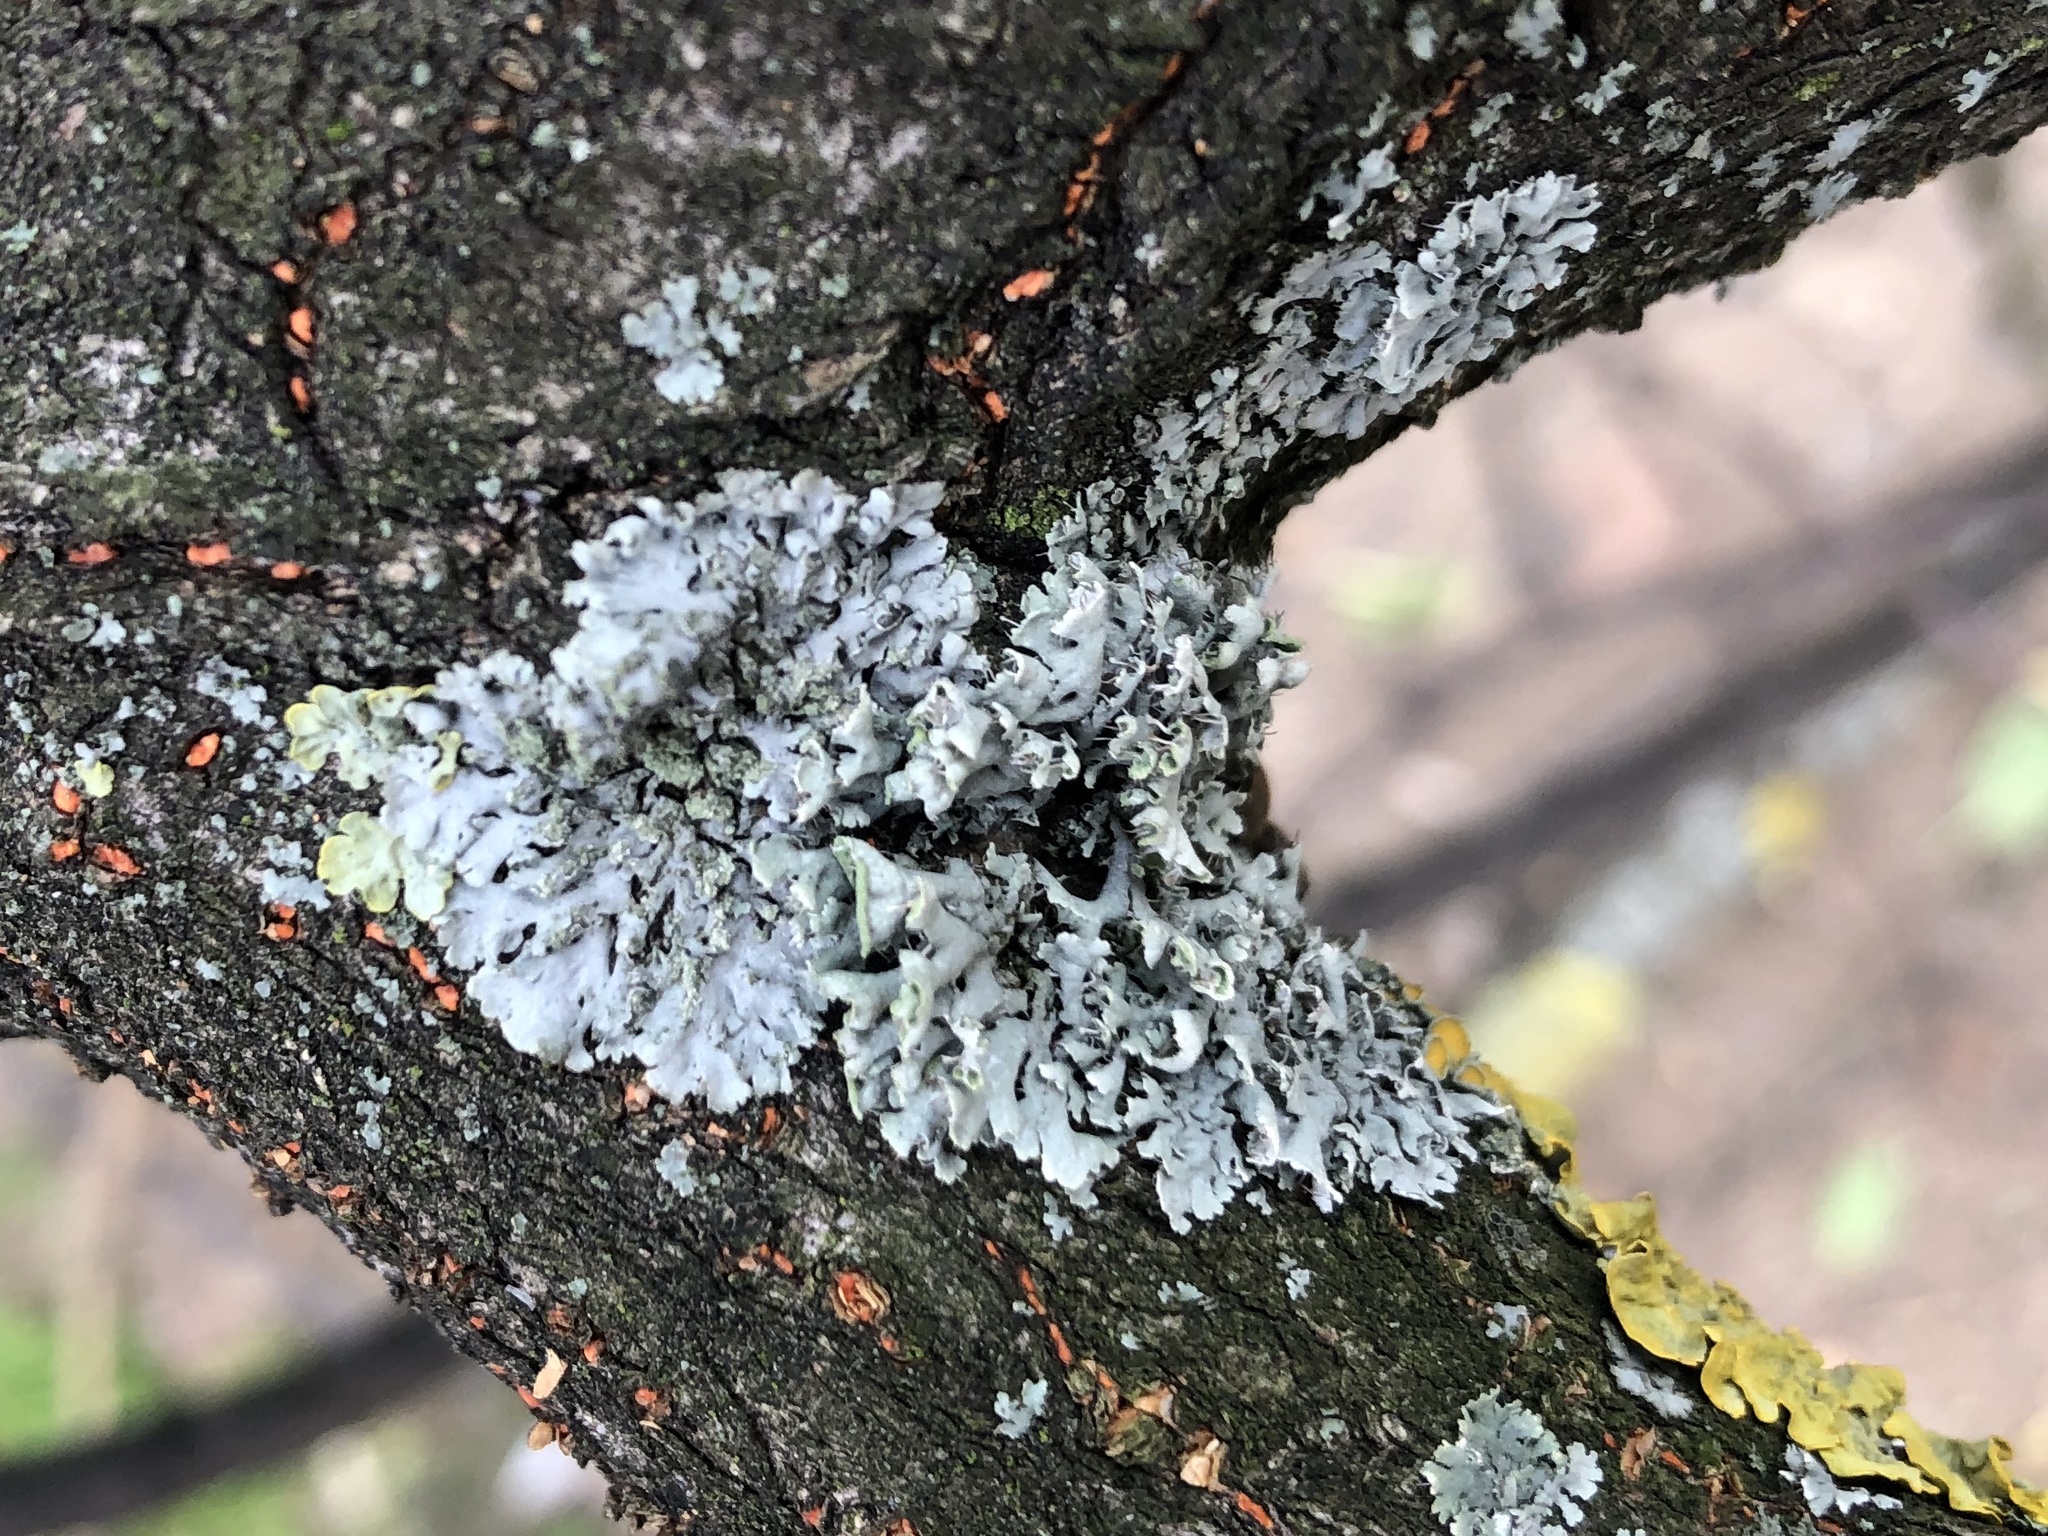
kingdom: Fungi
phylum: Ascomycota
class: Lecanoromycetes
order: Caliciales
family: Physciaceae
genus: Physcia
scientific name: Physcia adscendens
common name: Hooded rosette lichen
